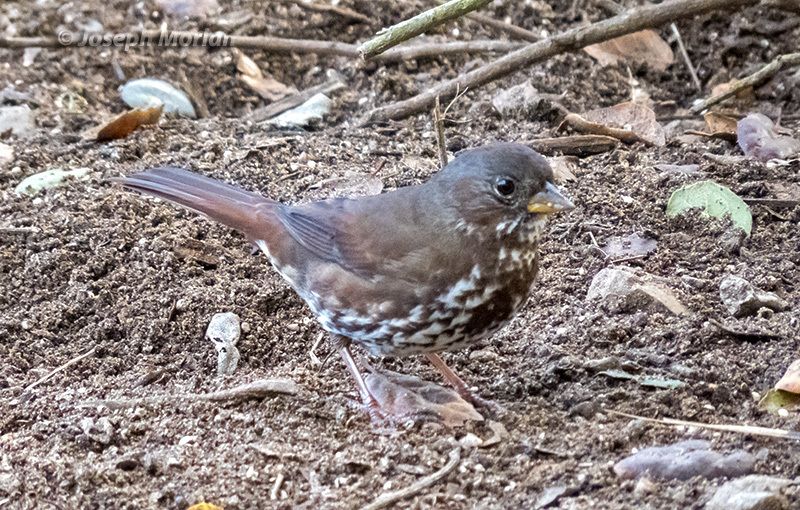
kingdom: Animalia
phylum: Chordata
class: Aves
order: Passeriformes
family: Passerellidae
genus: Passerella
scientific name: Passerella iliaca
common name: Fox sparrow
